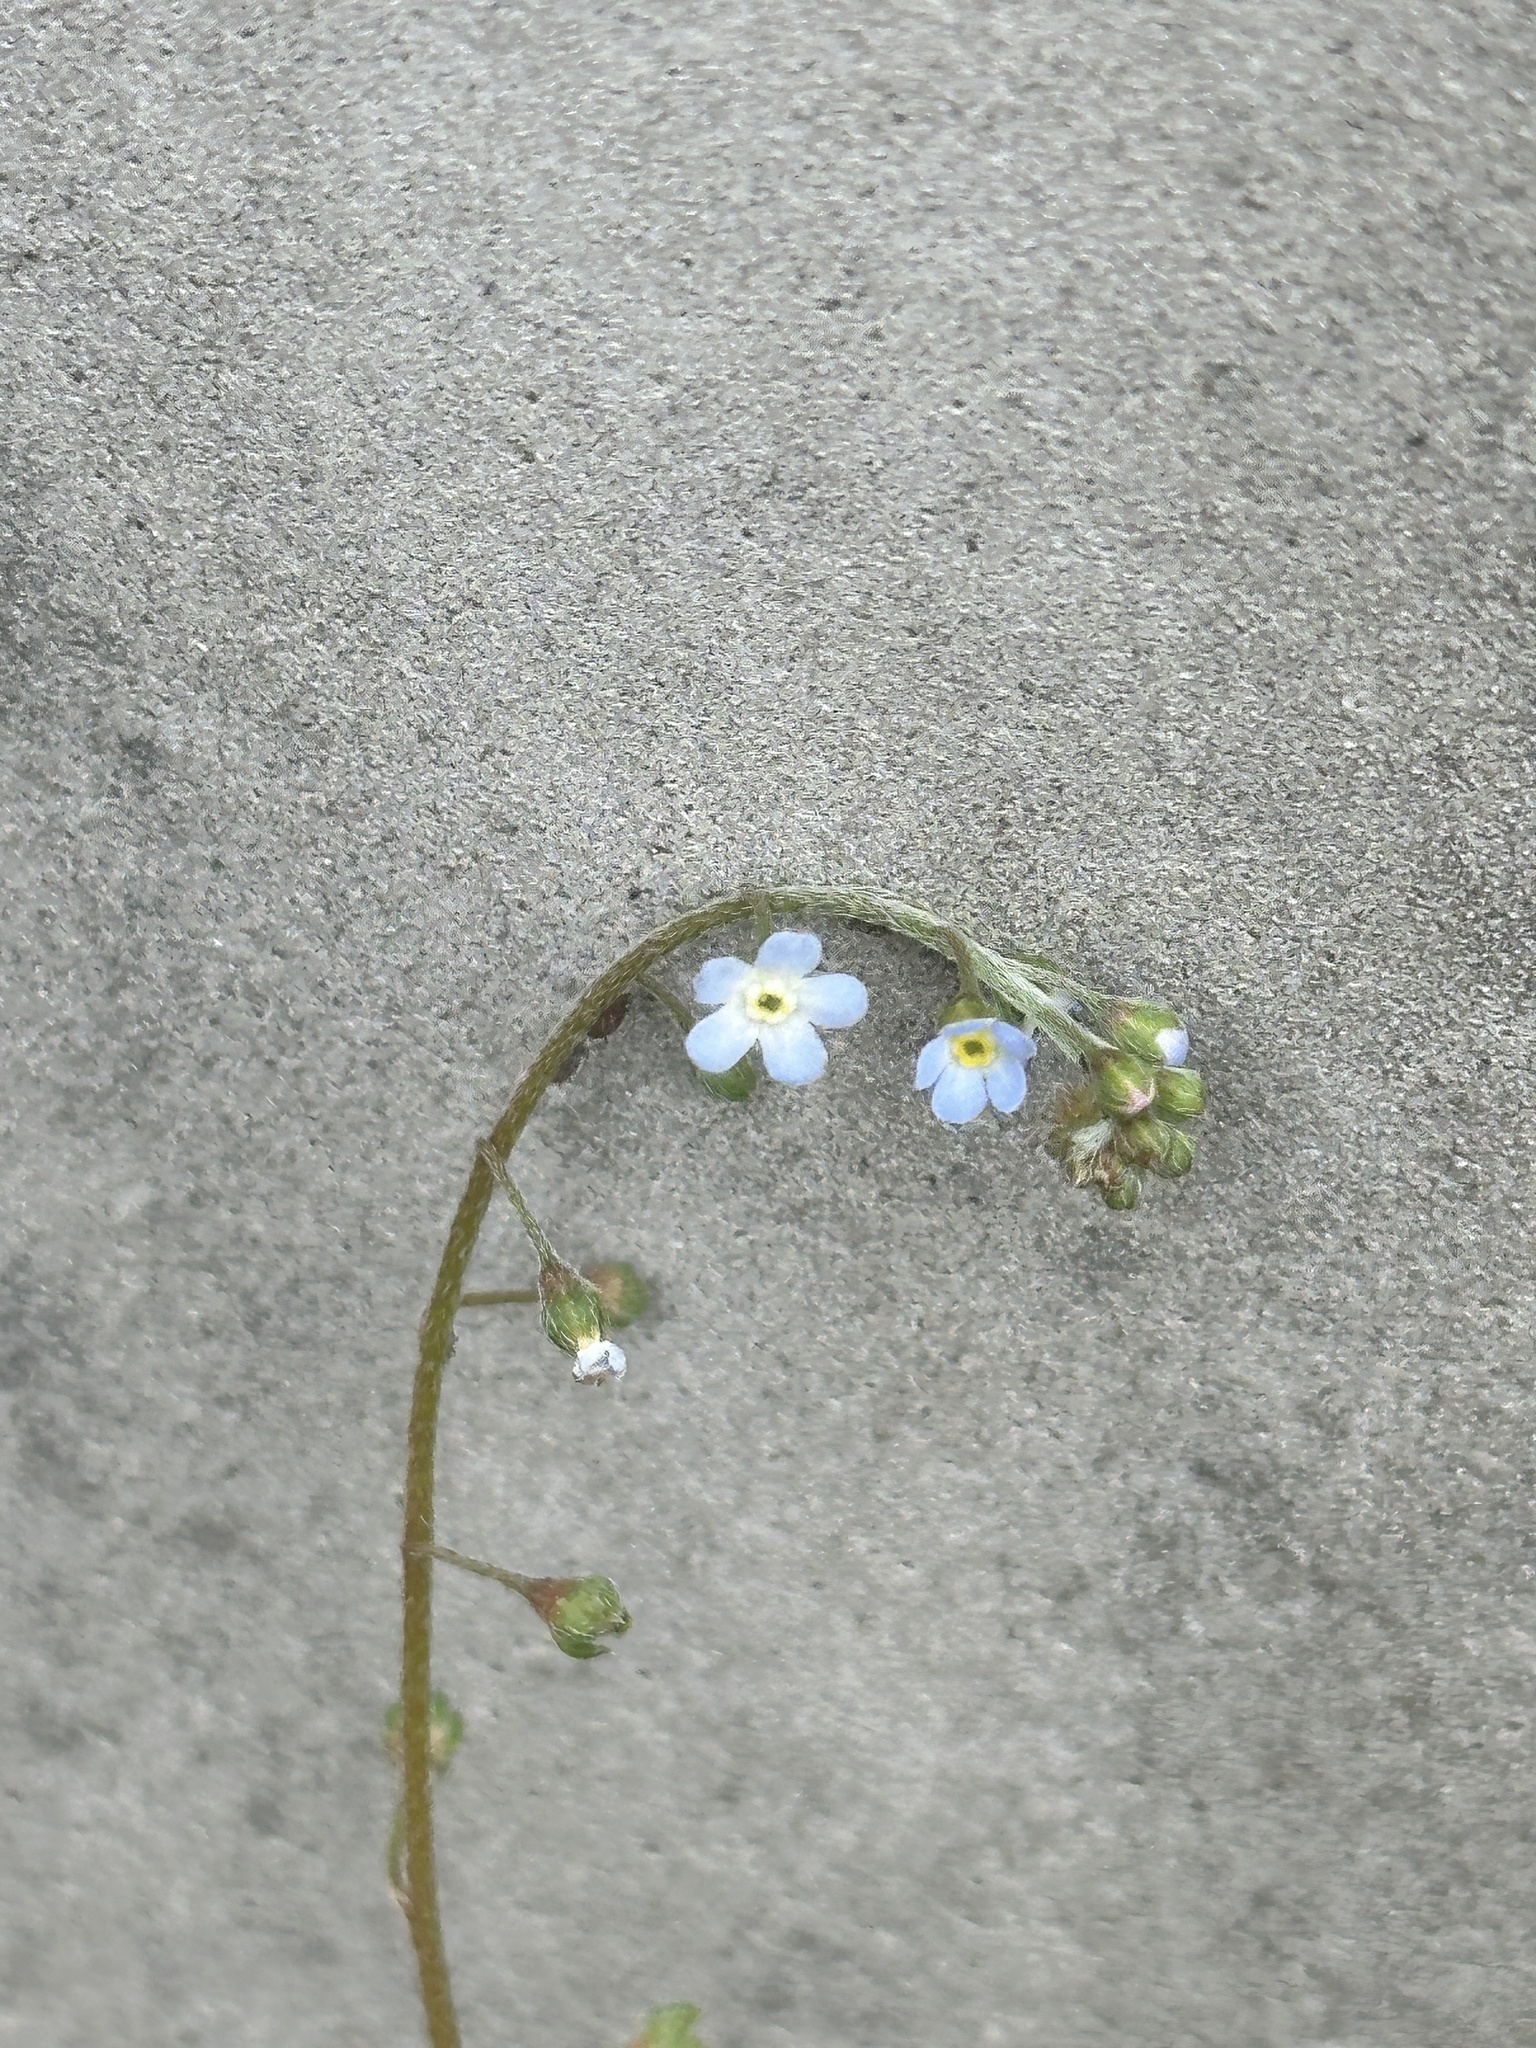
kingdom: Plantae
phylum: Tracheophyta
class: Magnoliopsida
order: Boraginales
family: Boraginaceae
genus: Trigonotis
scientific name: Trigonotis peduncularis
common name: Cucumber herb
